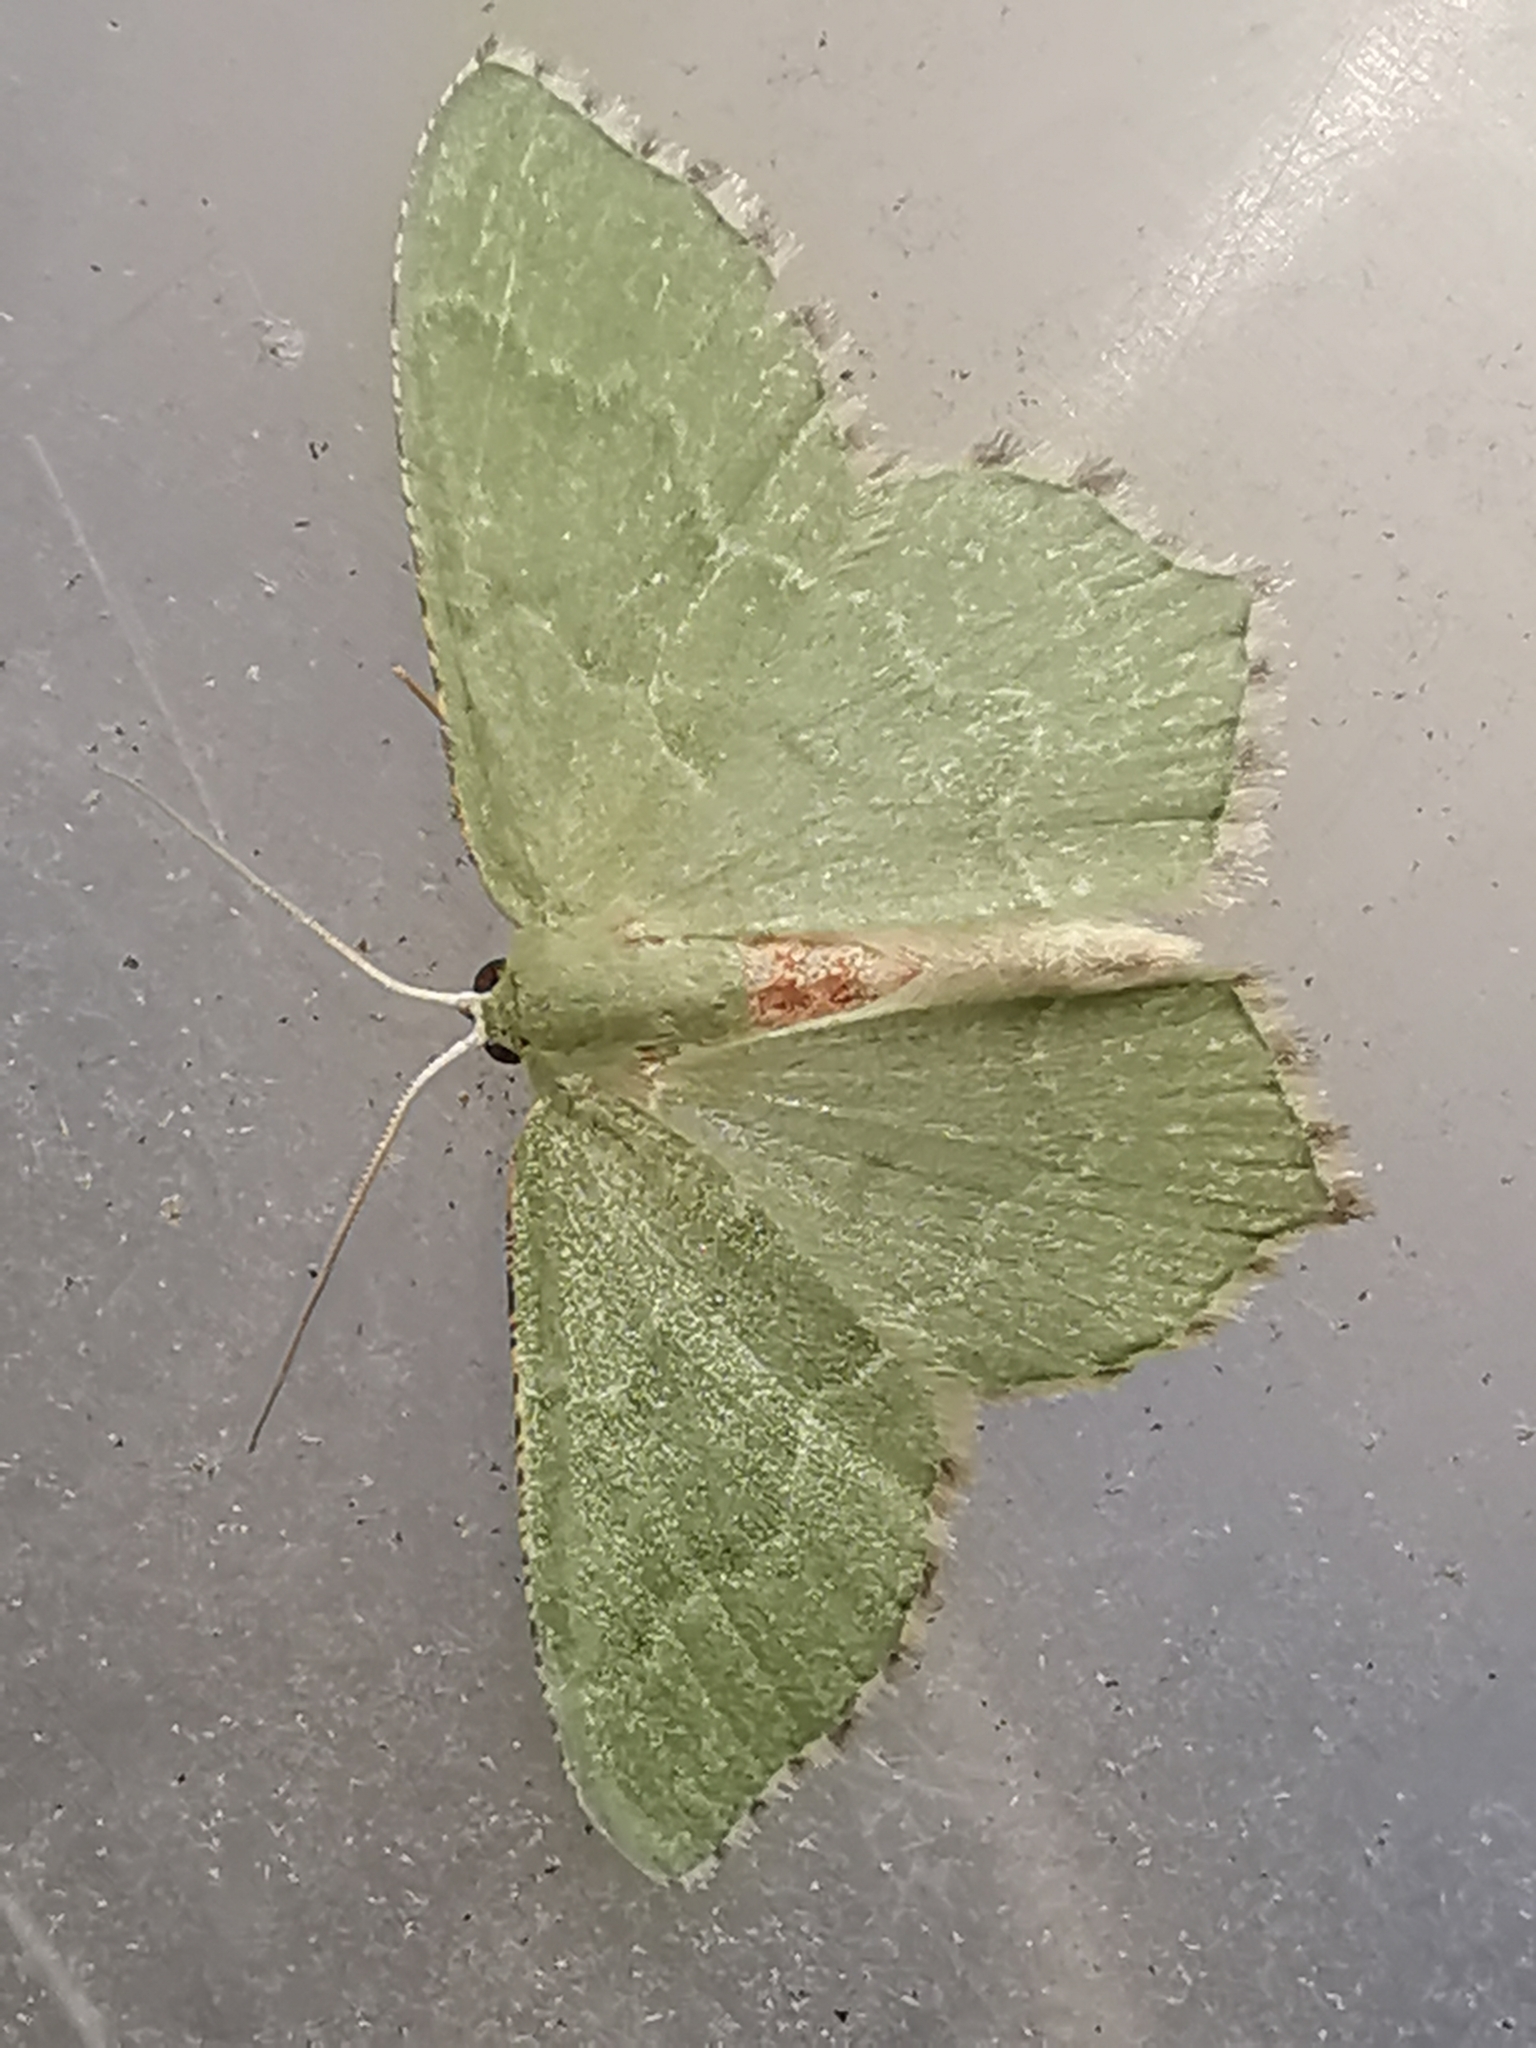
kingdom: Animalia
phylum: Arthropoda
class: Insecta
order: Lepidoptera
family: Geometridae
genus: Hemithea
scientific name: Hemithea aestivaria
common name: Common emerald
